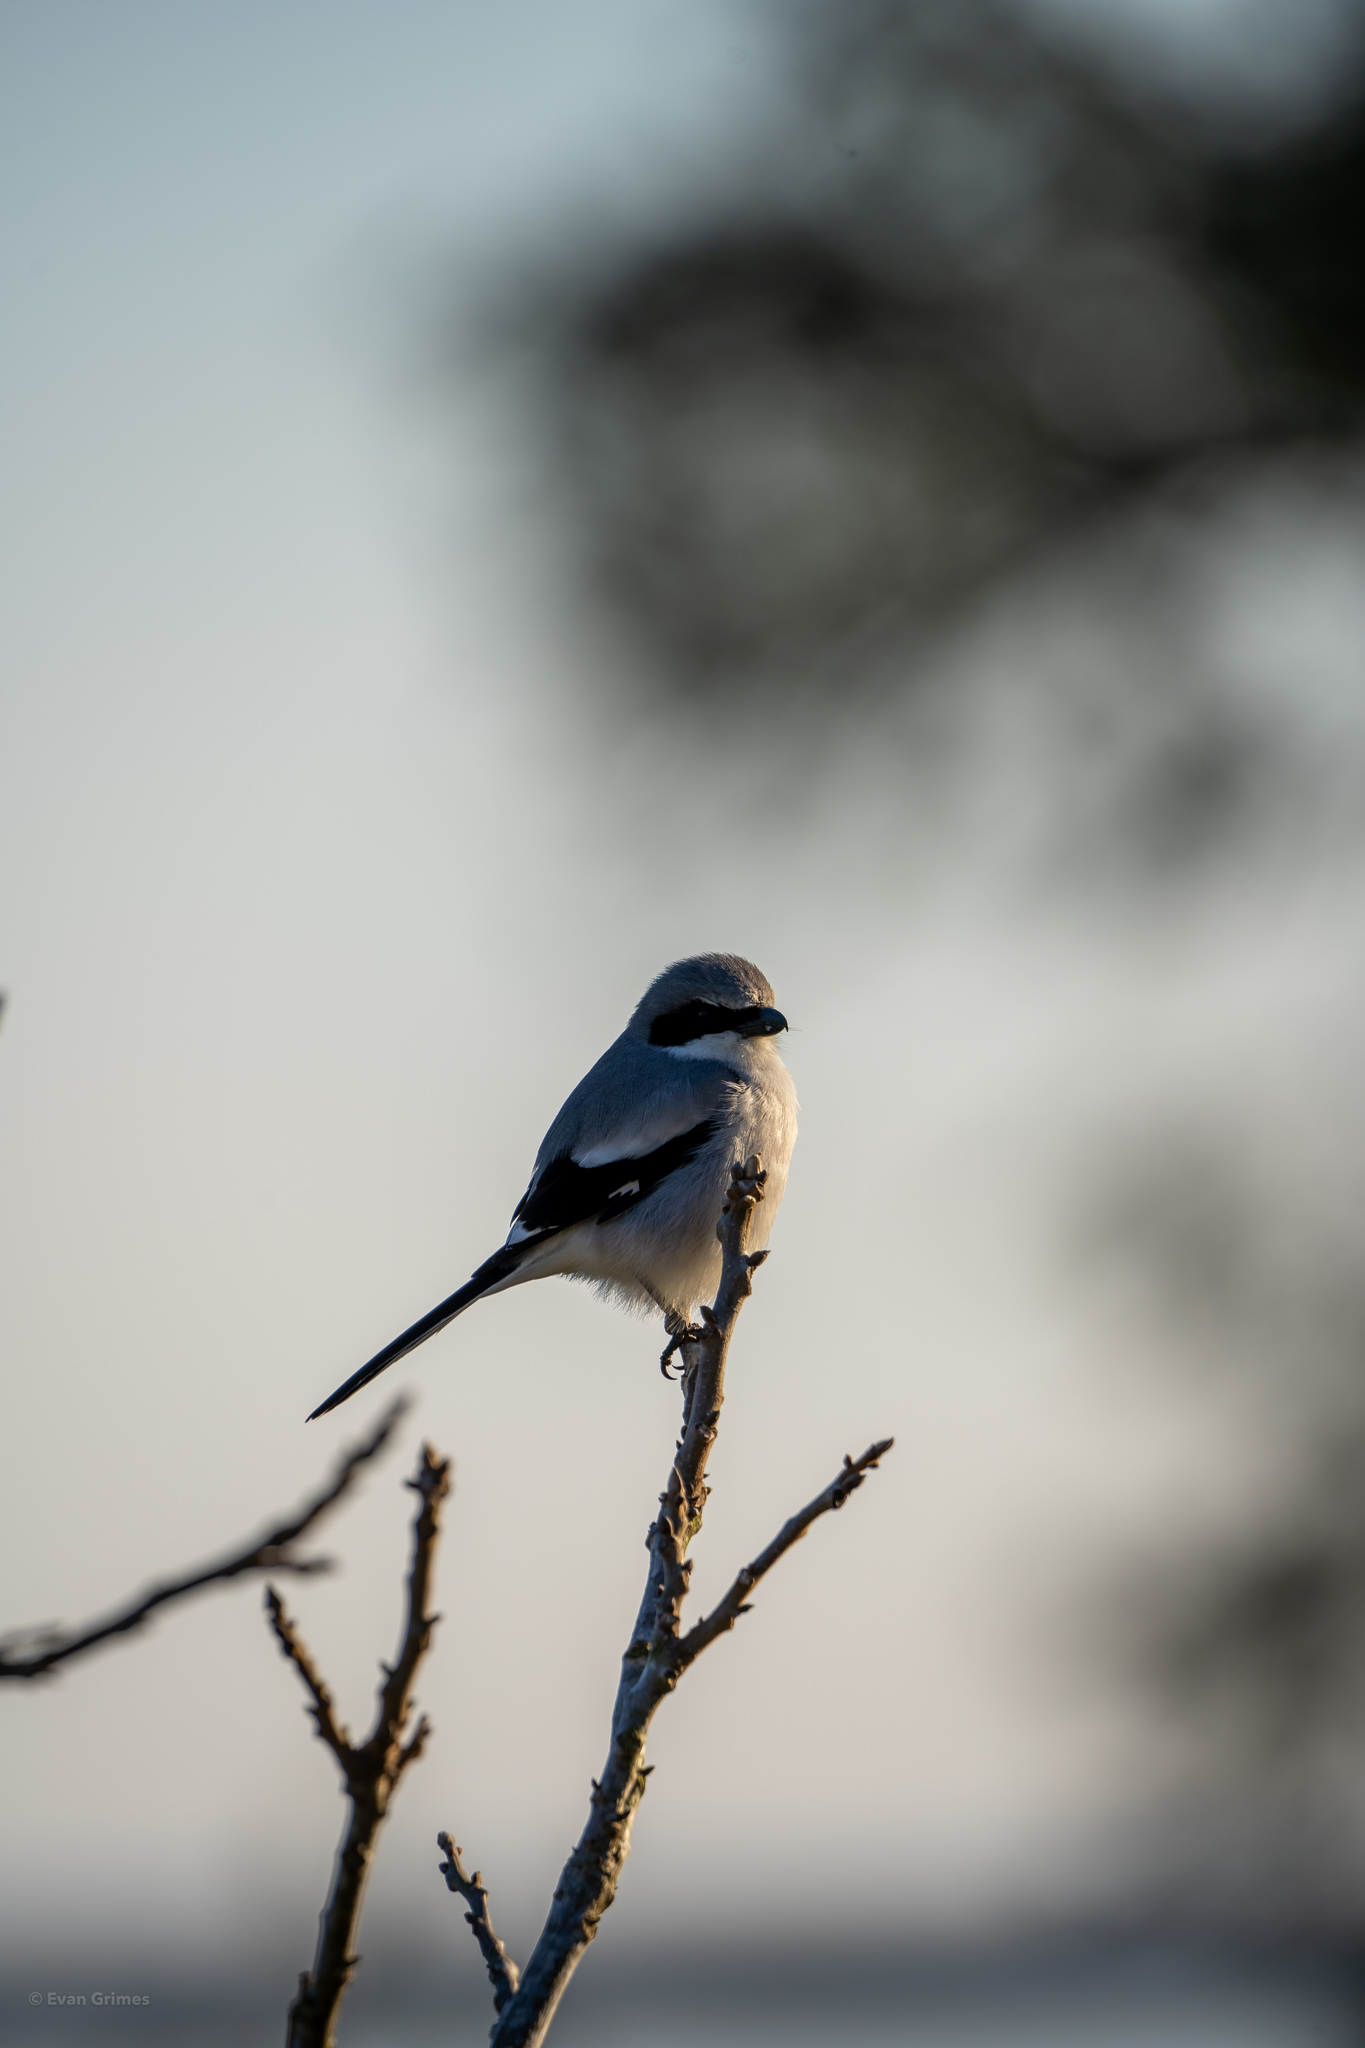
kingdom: Animalia
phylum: Chordata
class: Aves
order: Passeriformes
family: Laniidae
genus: Lanius
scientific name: Lanius ludovicianus
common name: Loggerhead shrike
